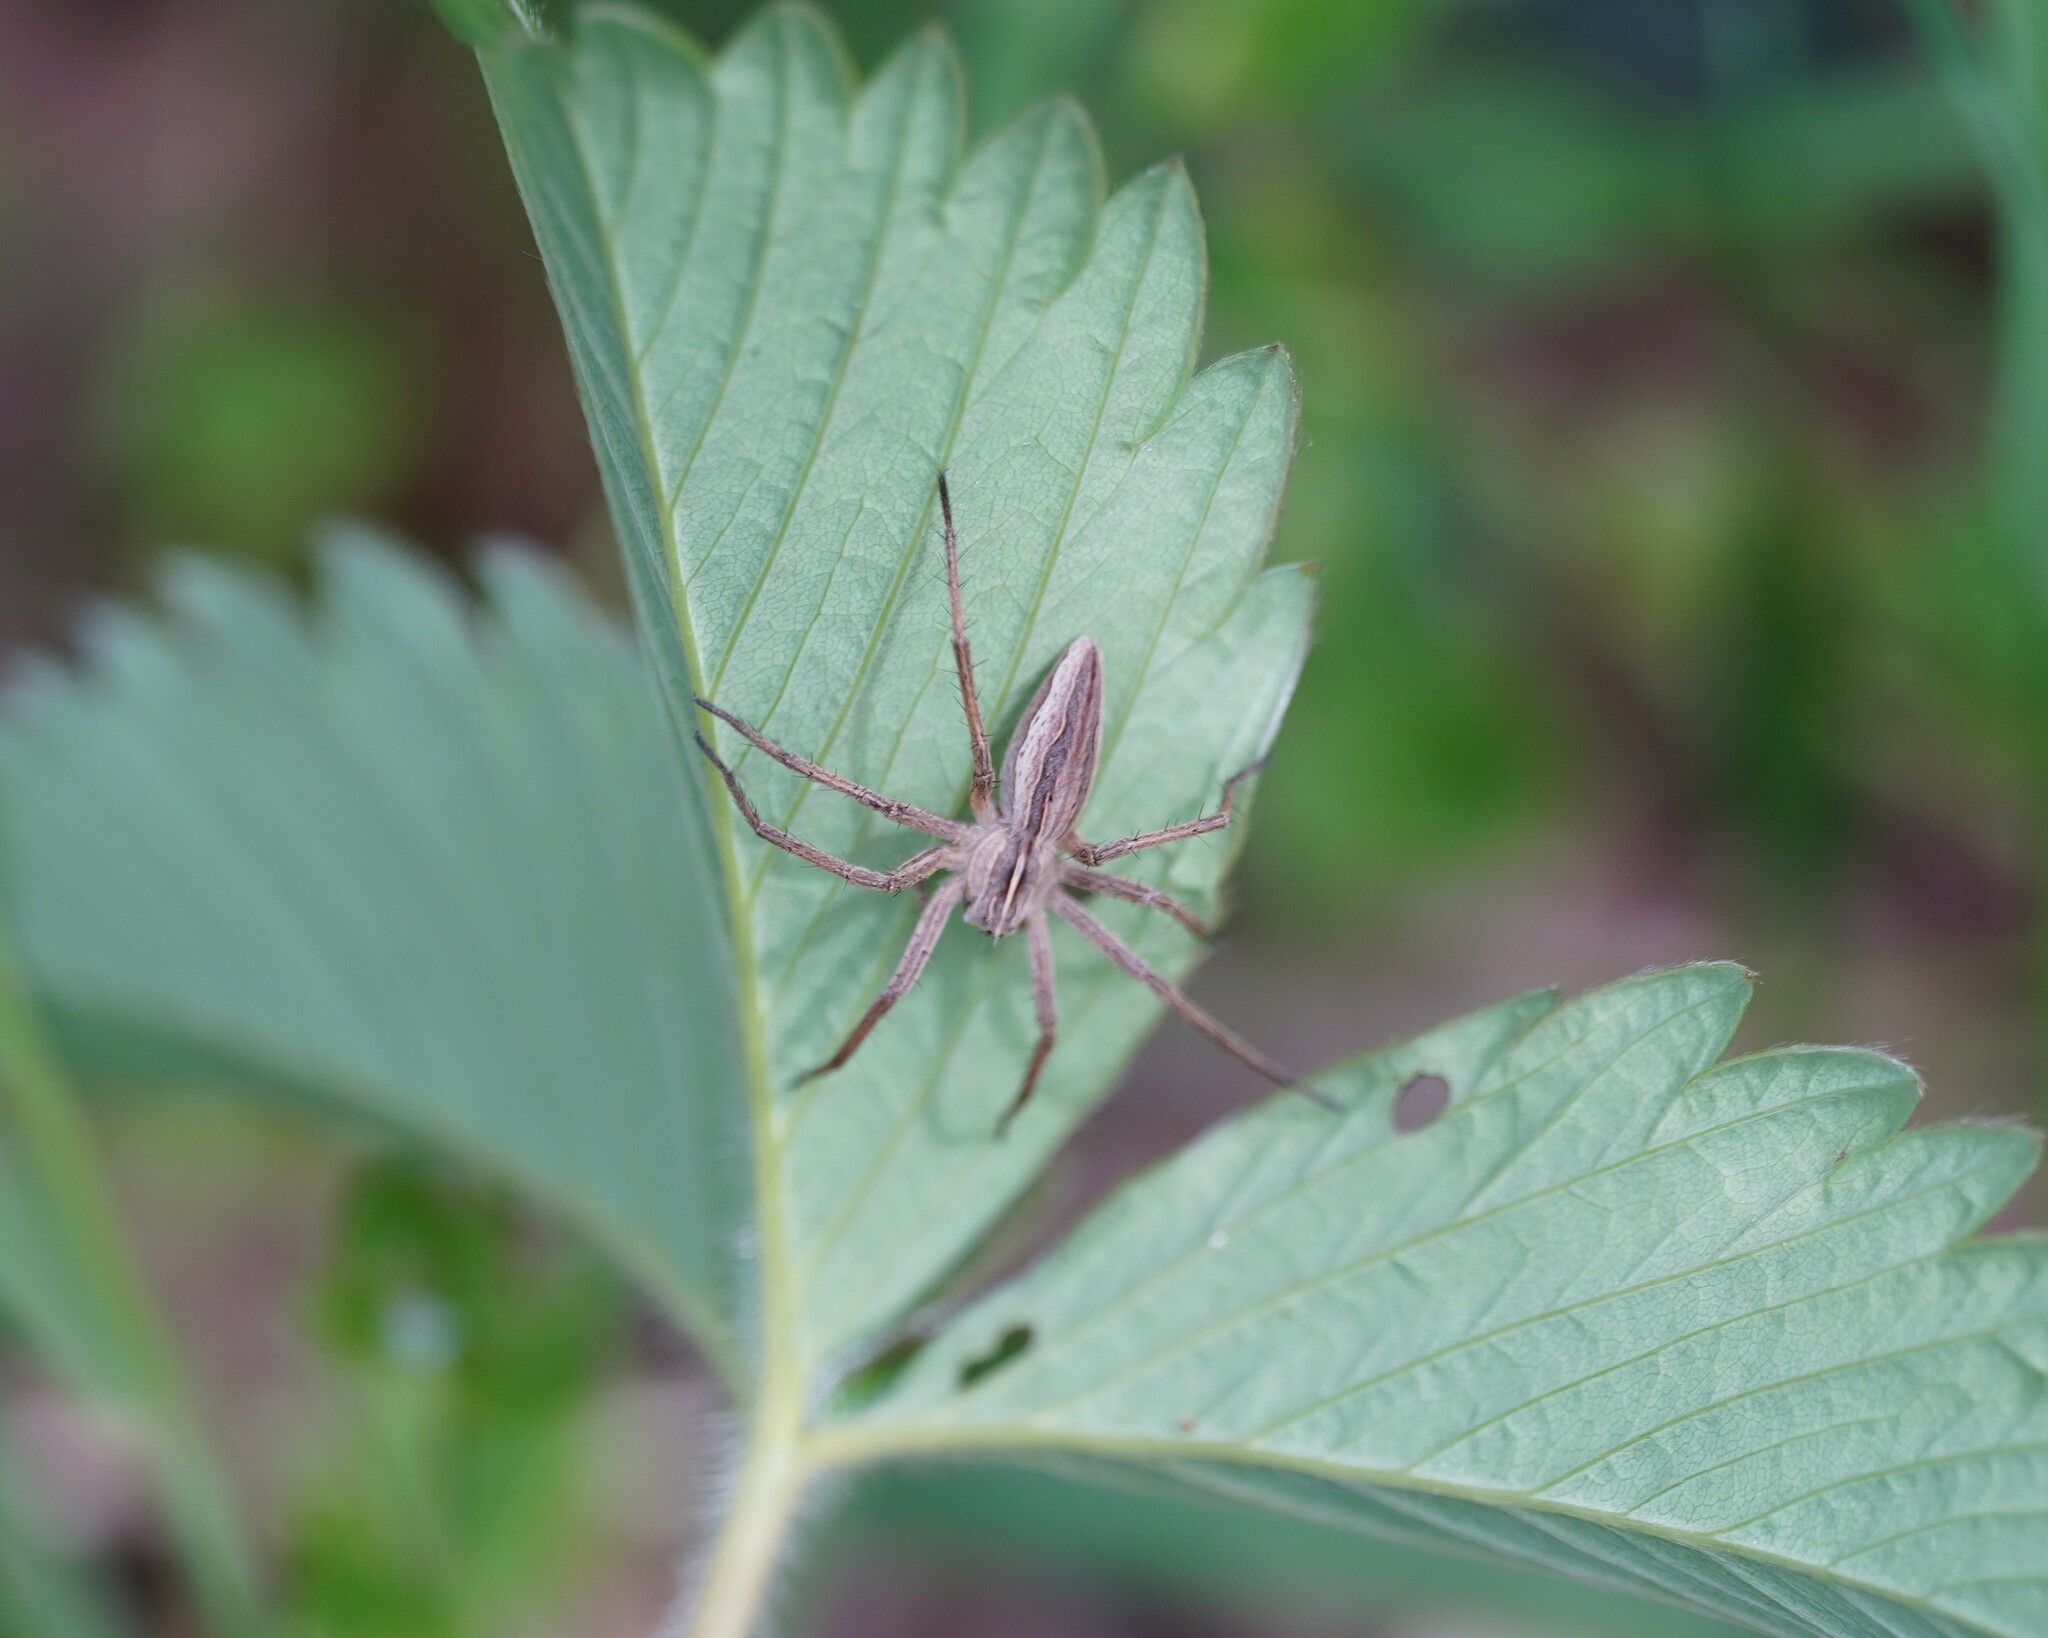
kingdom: Animalia
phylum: Arthropoda
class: Arachnida
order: Araneae
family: Pisauridae
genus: Pisaura
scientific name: Pisaura mirabilis
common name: Tent spider
